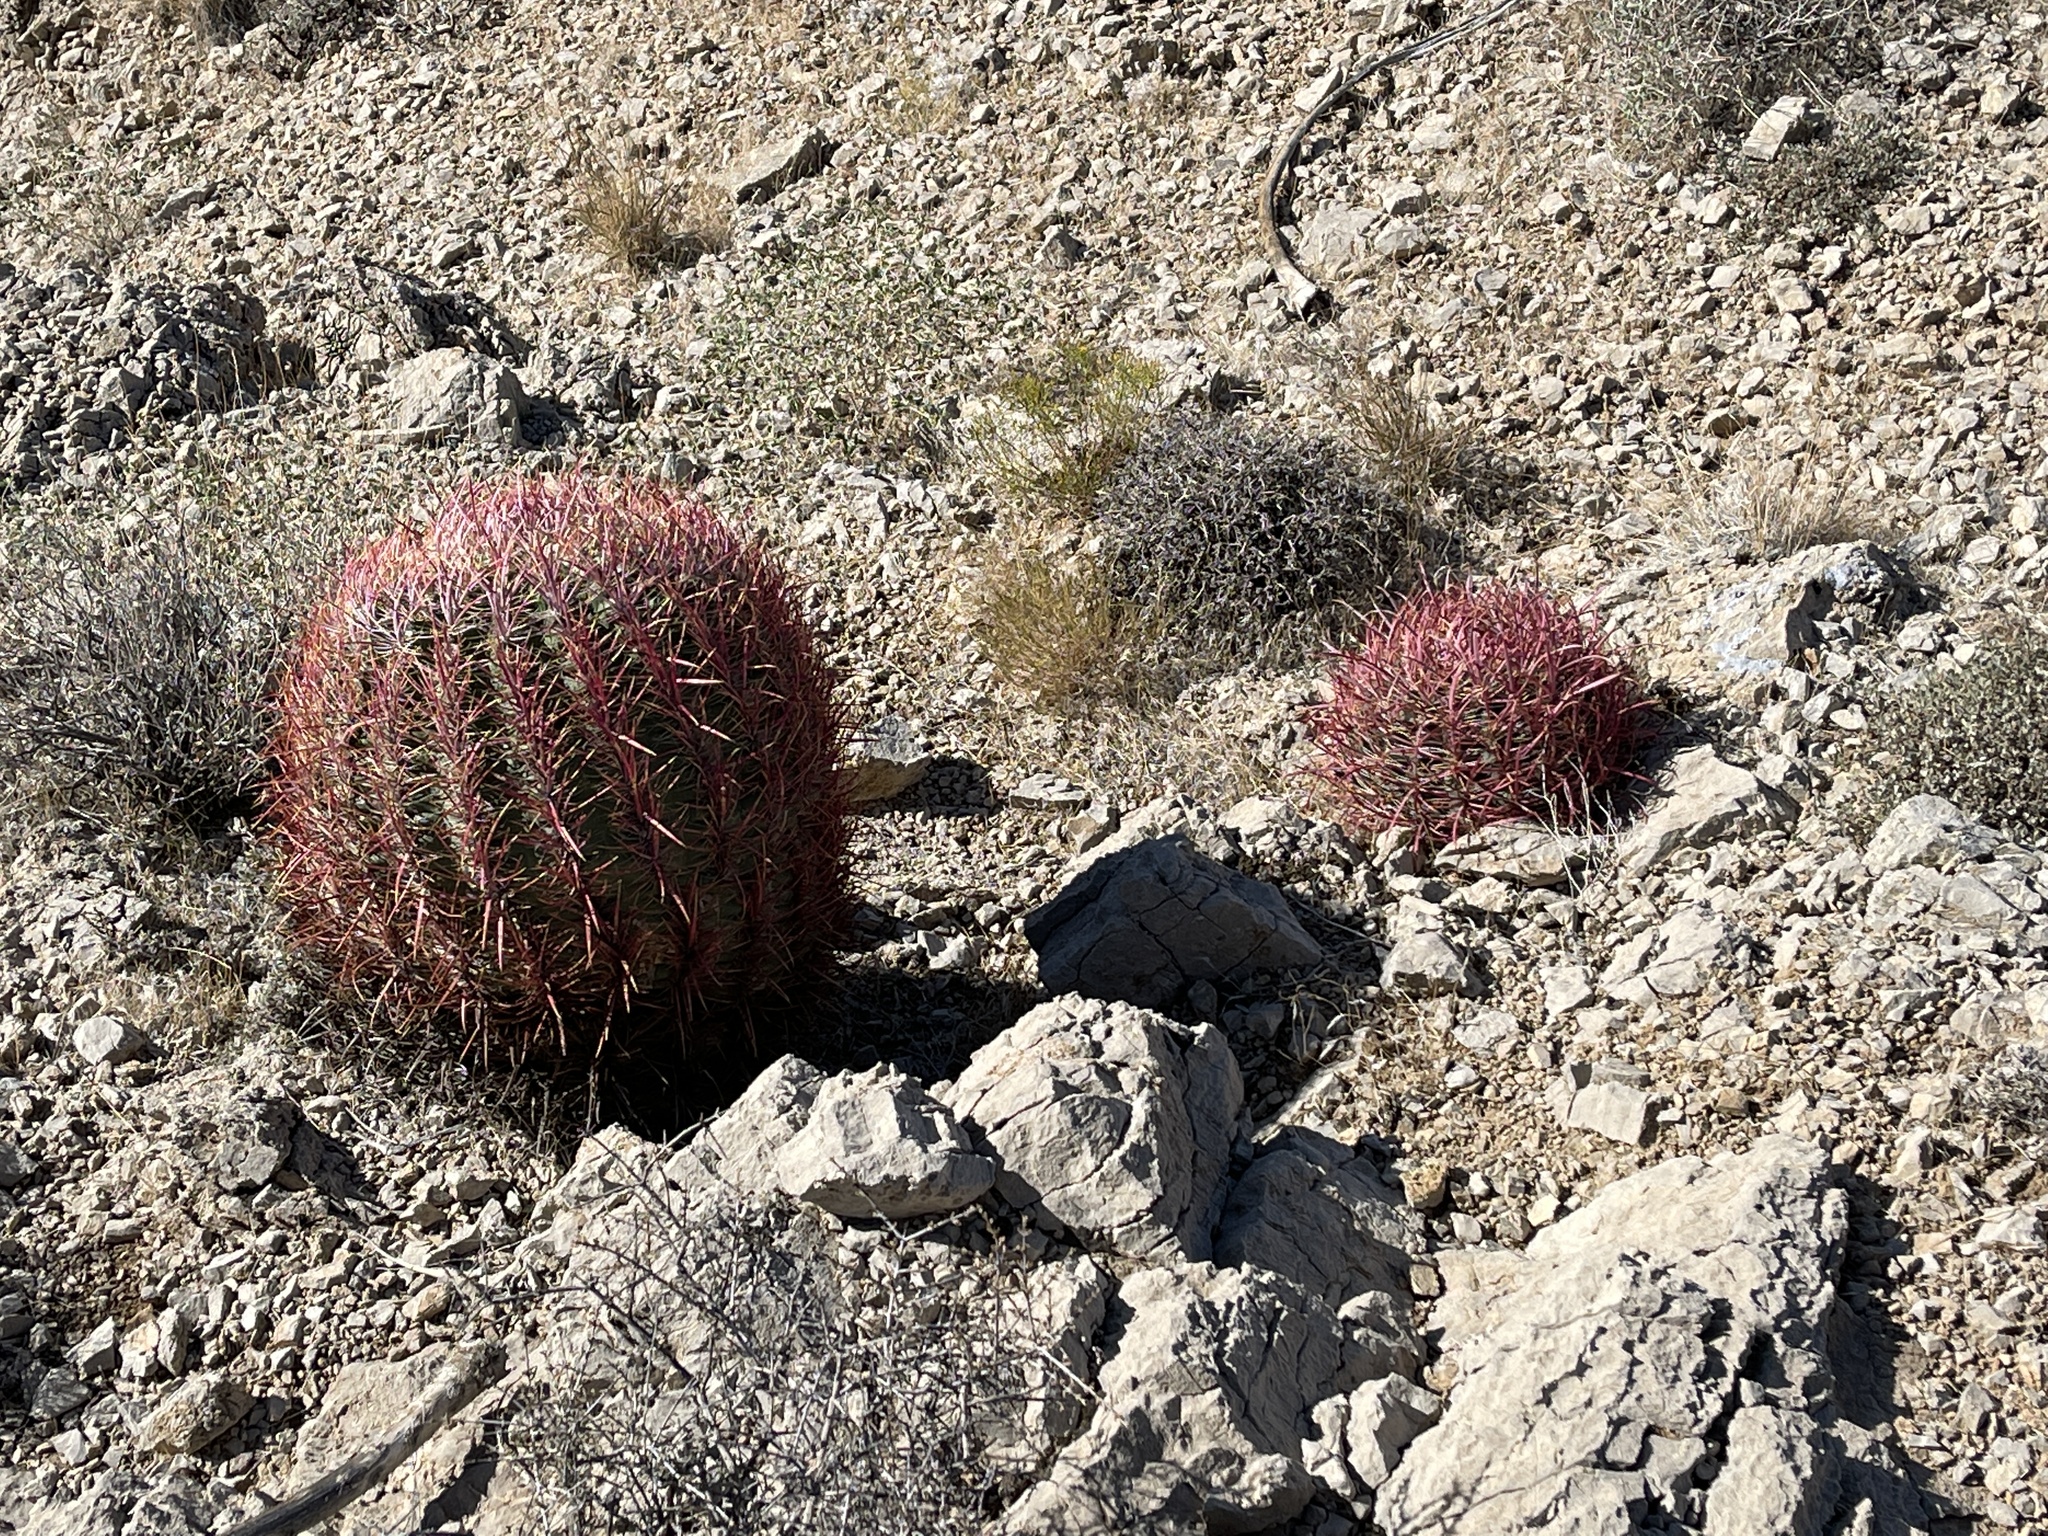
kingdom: Plantae
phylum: Tracheophyta
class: Magnoliopsida
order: Caryophyllales
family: Cactaceae
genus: Ferocactus
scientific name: Ferocactus cylindraceus
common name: California barrel cactus
